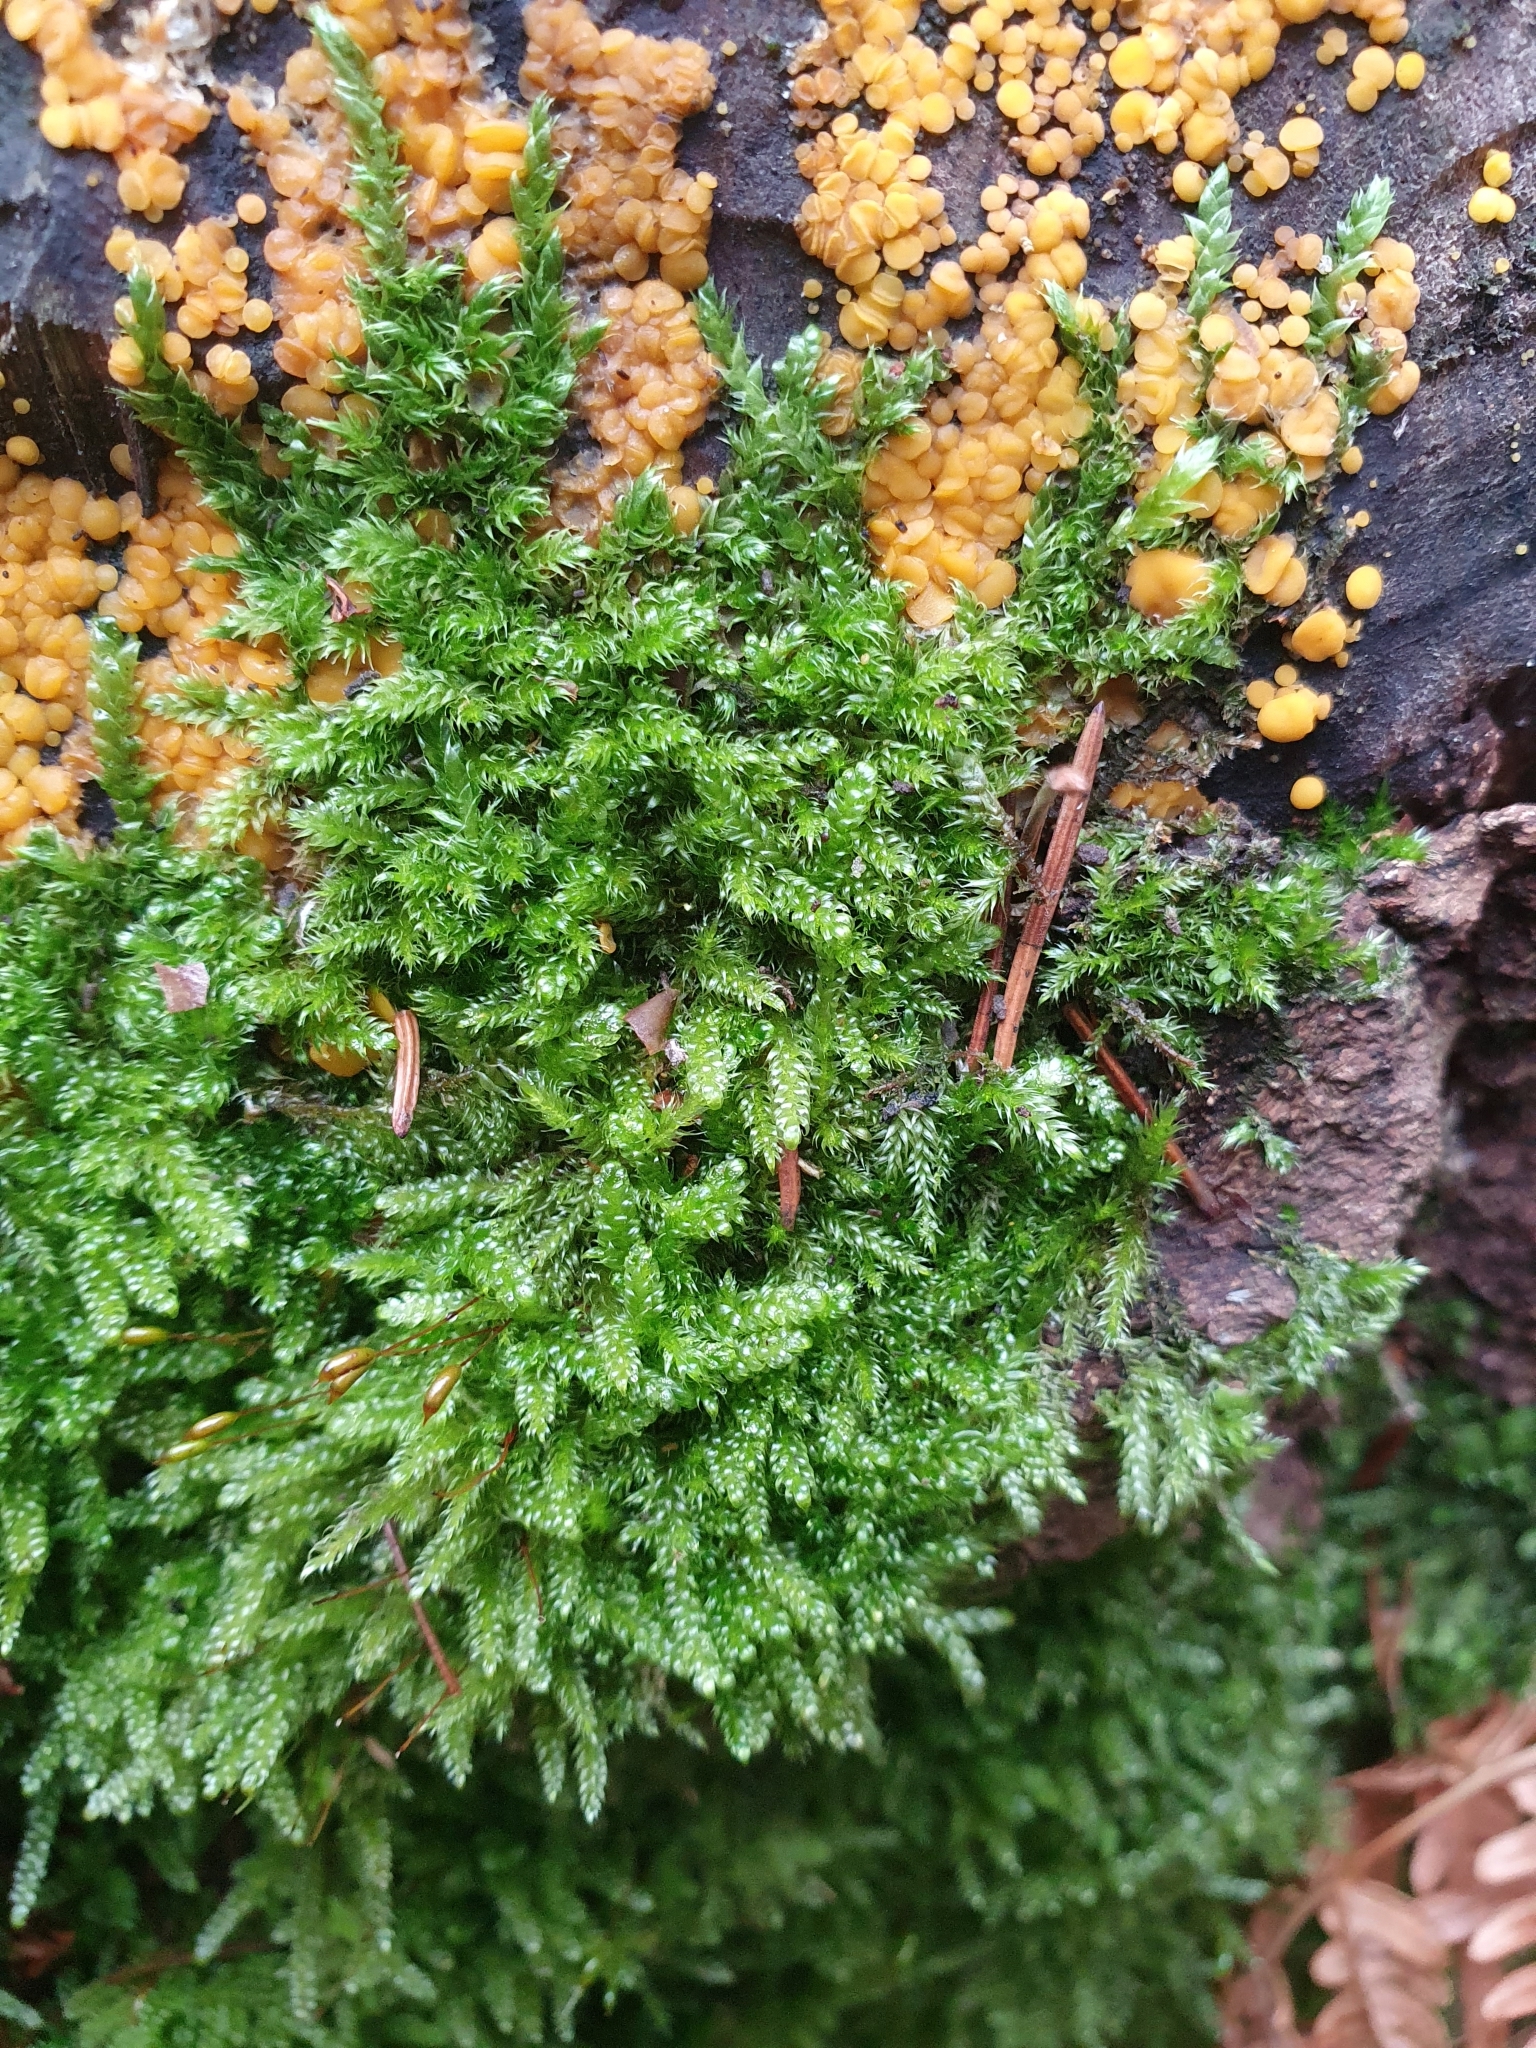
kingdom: Plantae
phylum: Bryophyta
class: Bryopsida
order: Hypnales
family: Hypnaceae
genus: Hypnum
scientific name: Hypnum cupressiforme
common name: Cypress-leaved plait-moss
